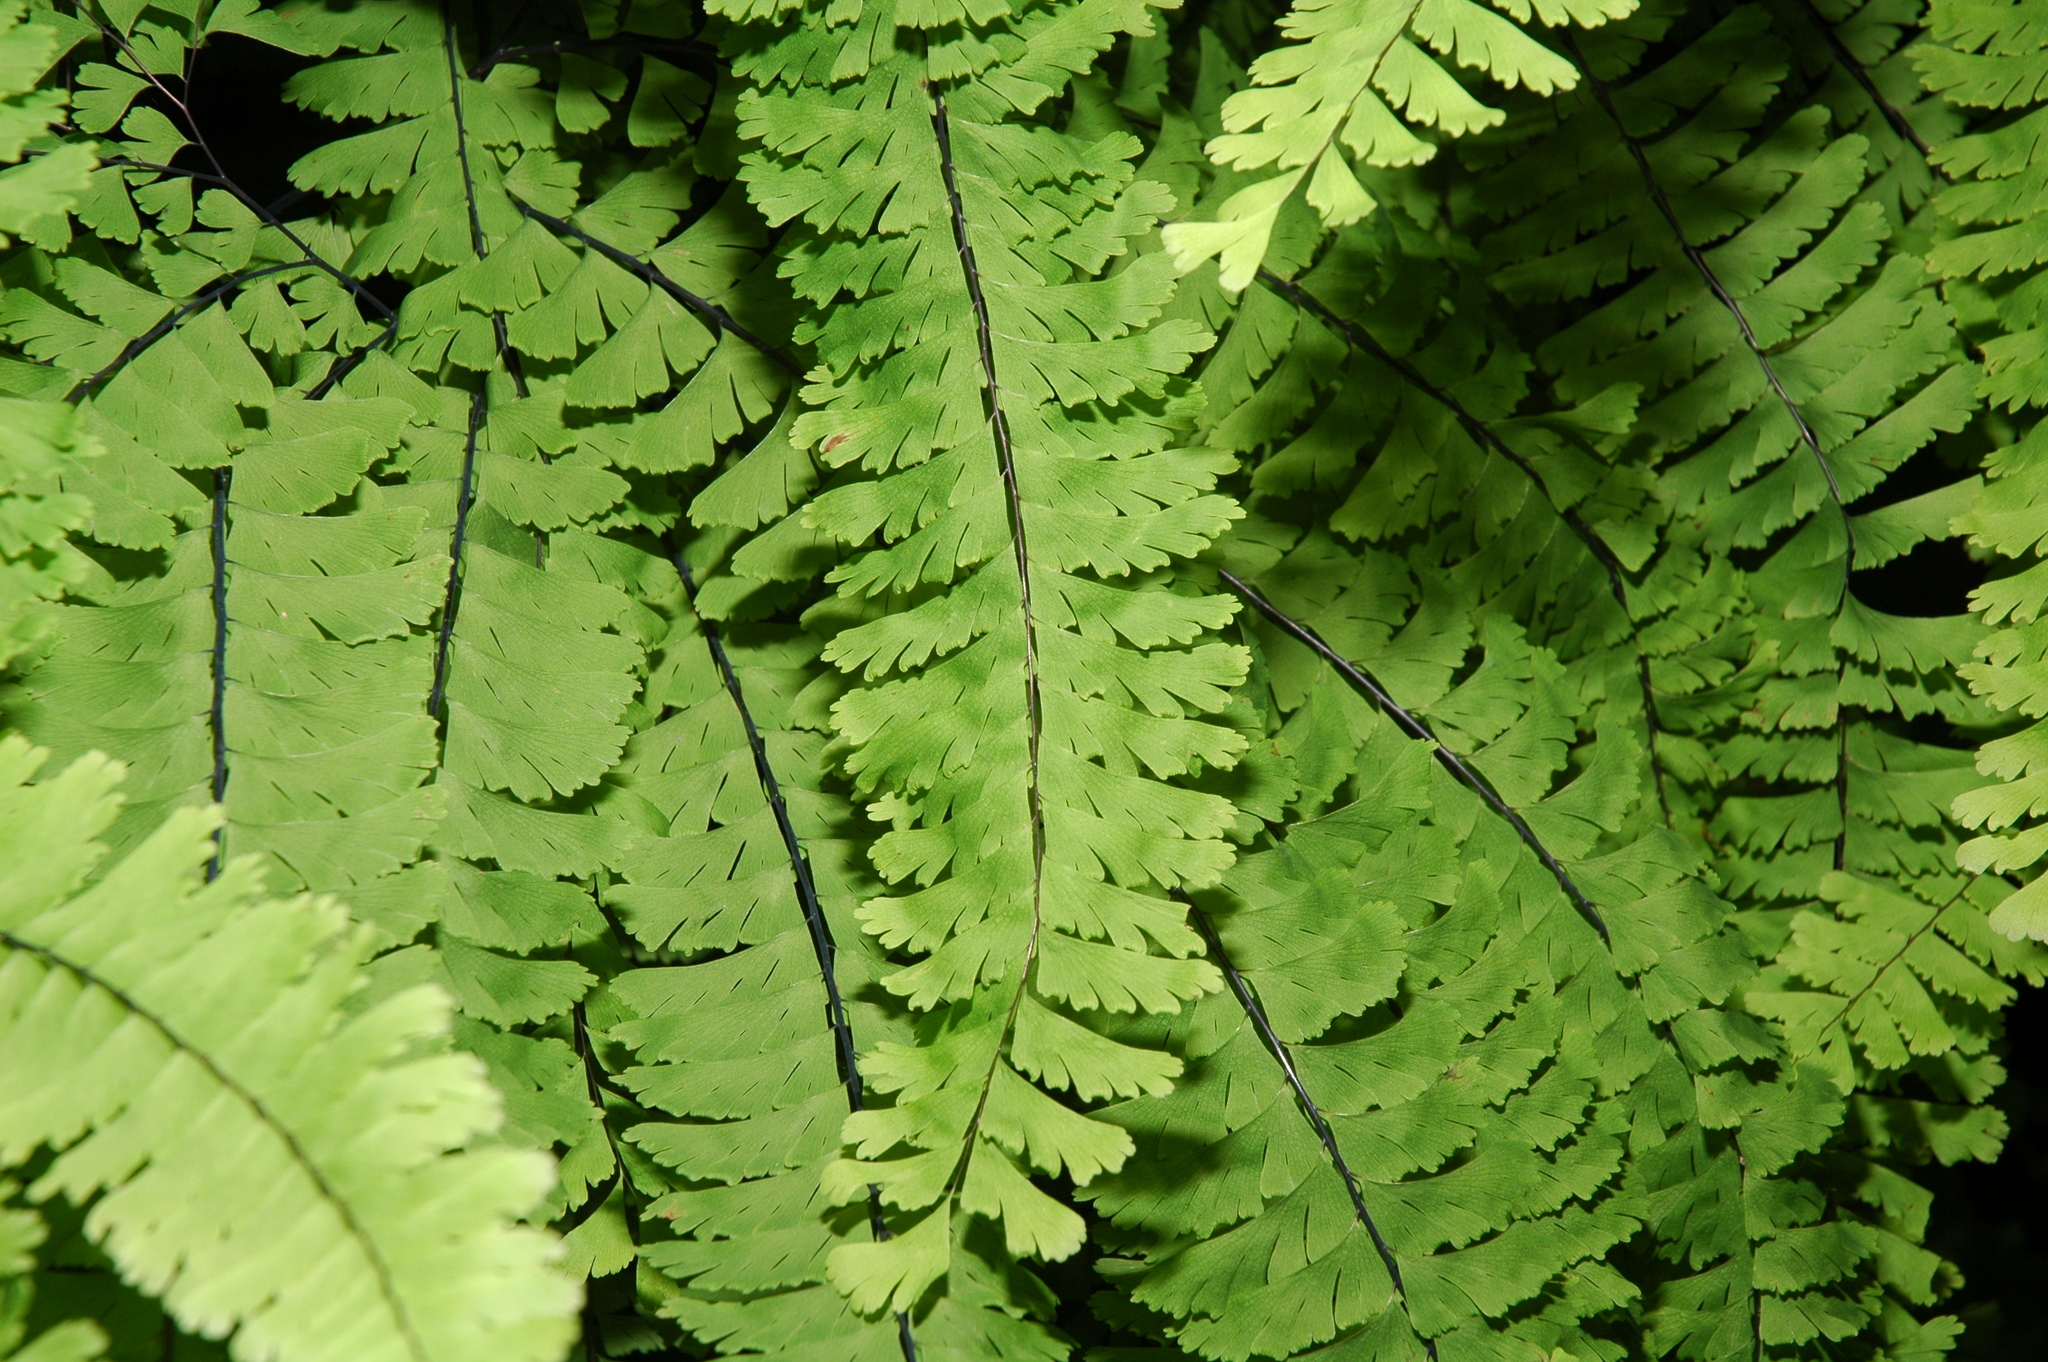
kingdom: Plantae
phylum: Tracheophyta
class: Polypodiopsida
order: Polypodiales
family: Pteridaceae
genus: Adiantum
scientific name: Adiantum aleuticum
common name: Aleutian maidenhair fern
